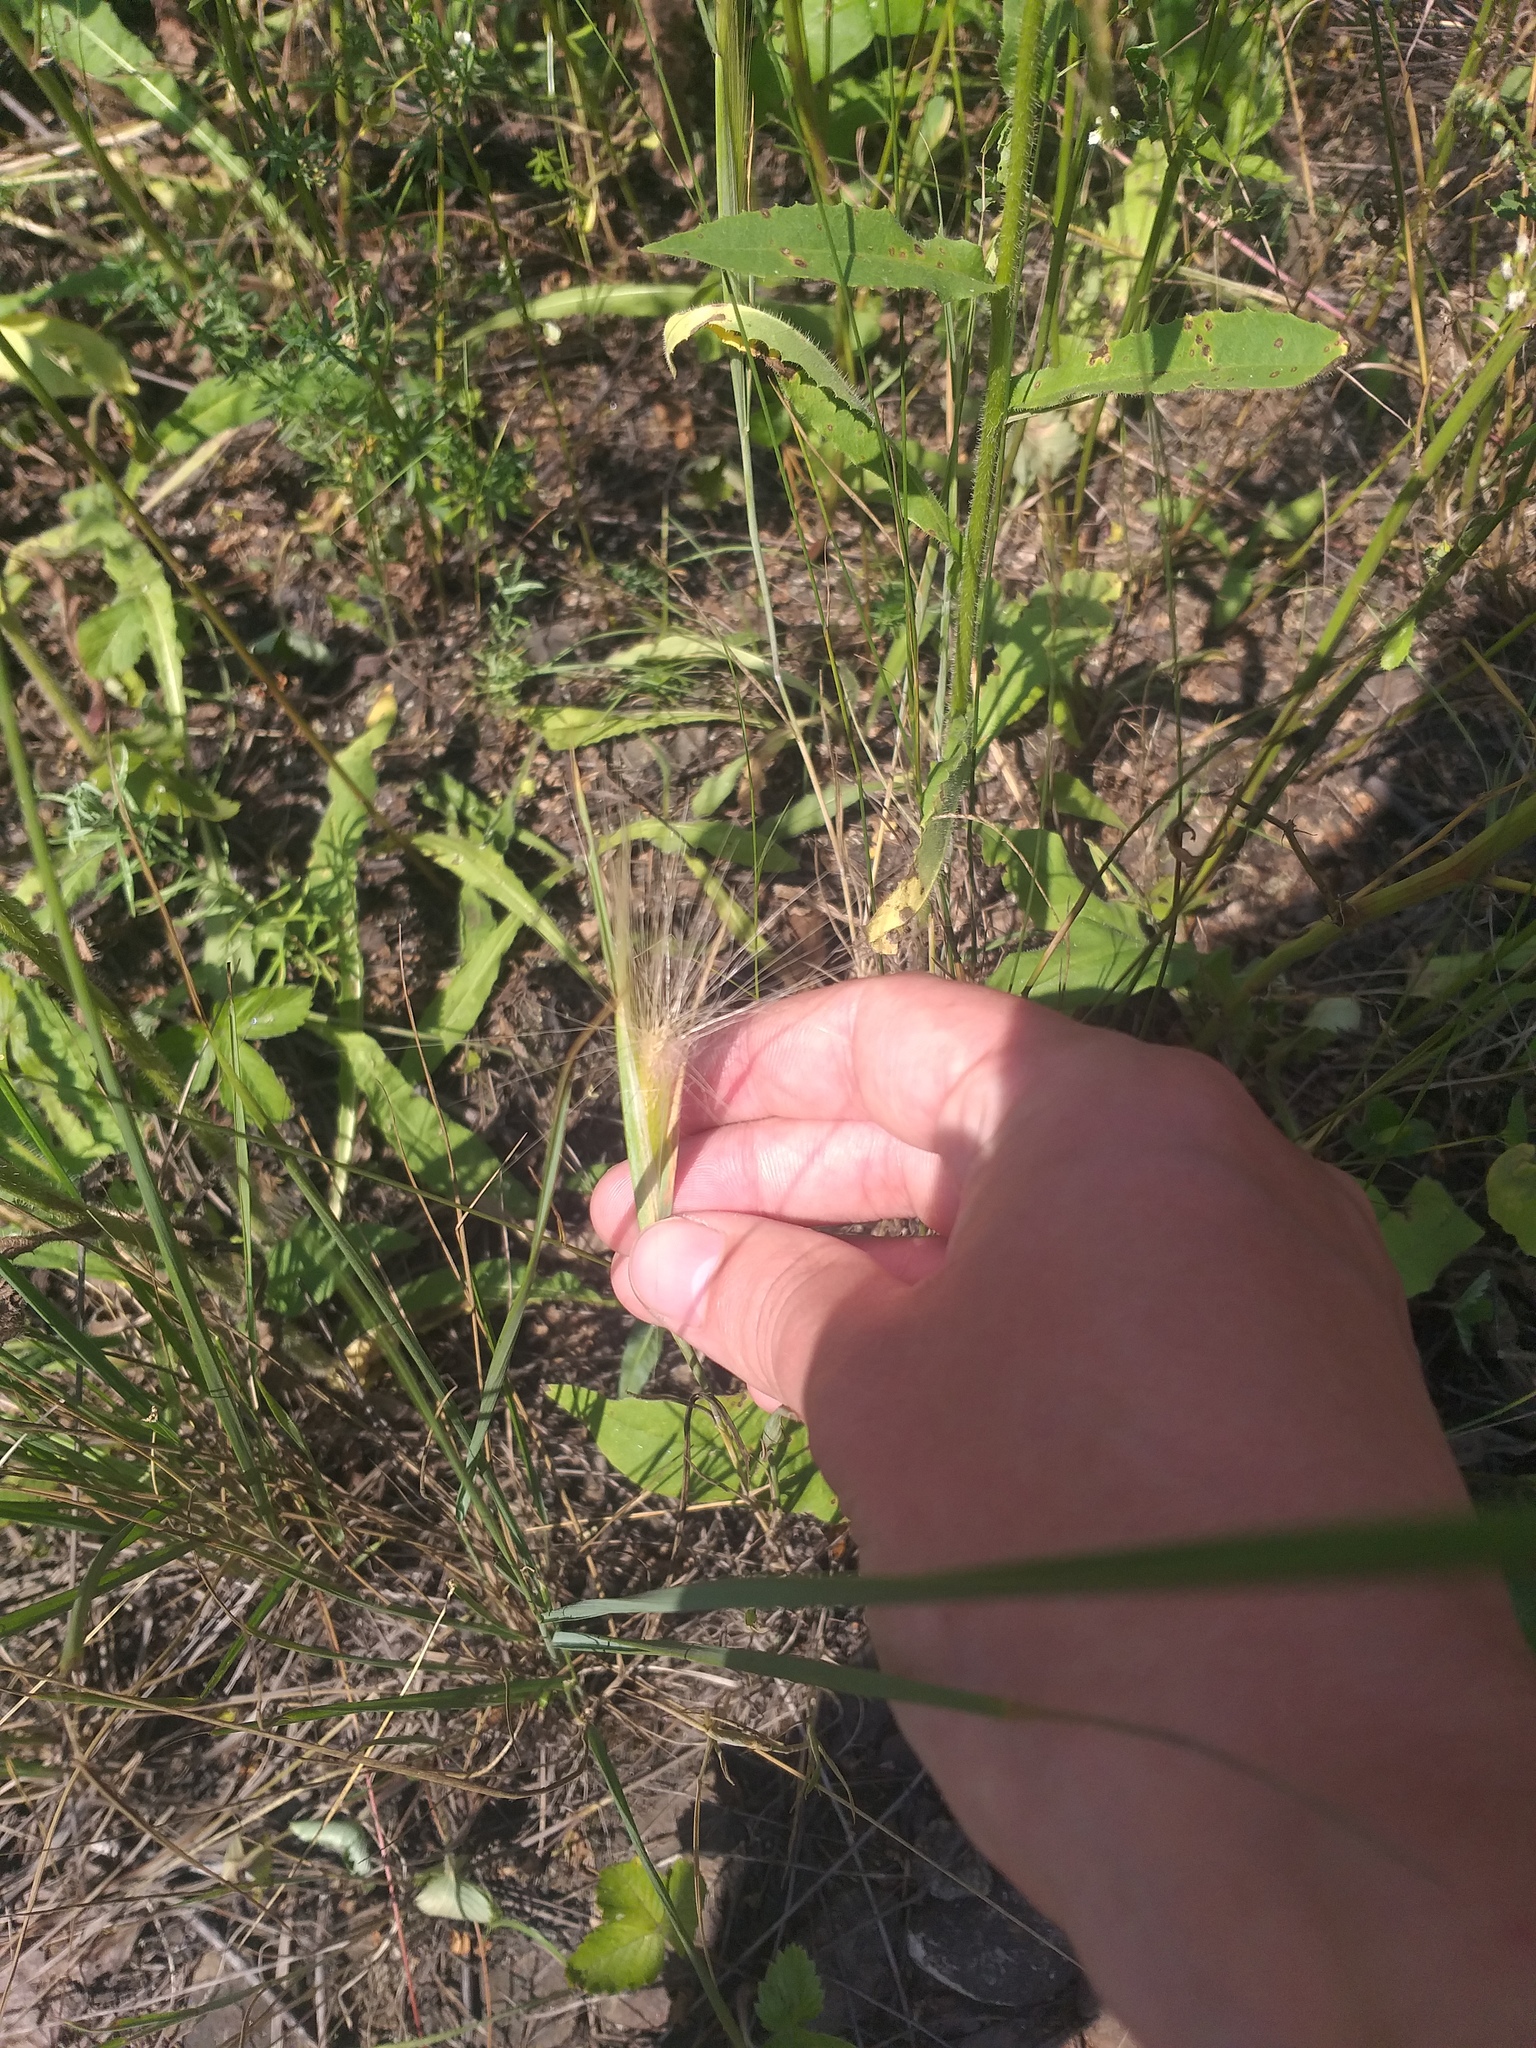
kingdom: Plantae
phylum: Tracheophyta
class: Liliopsida
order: Poales
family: Poaceae
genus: Hordeum
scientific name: Hordeum jubatum
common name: Foxtail barley
